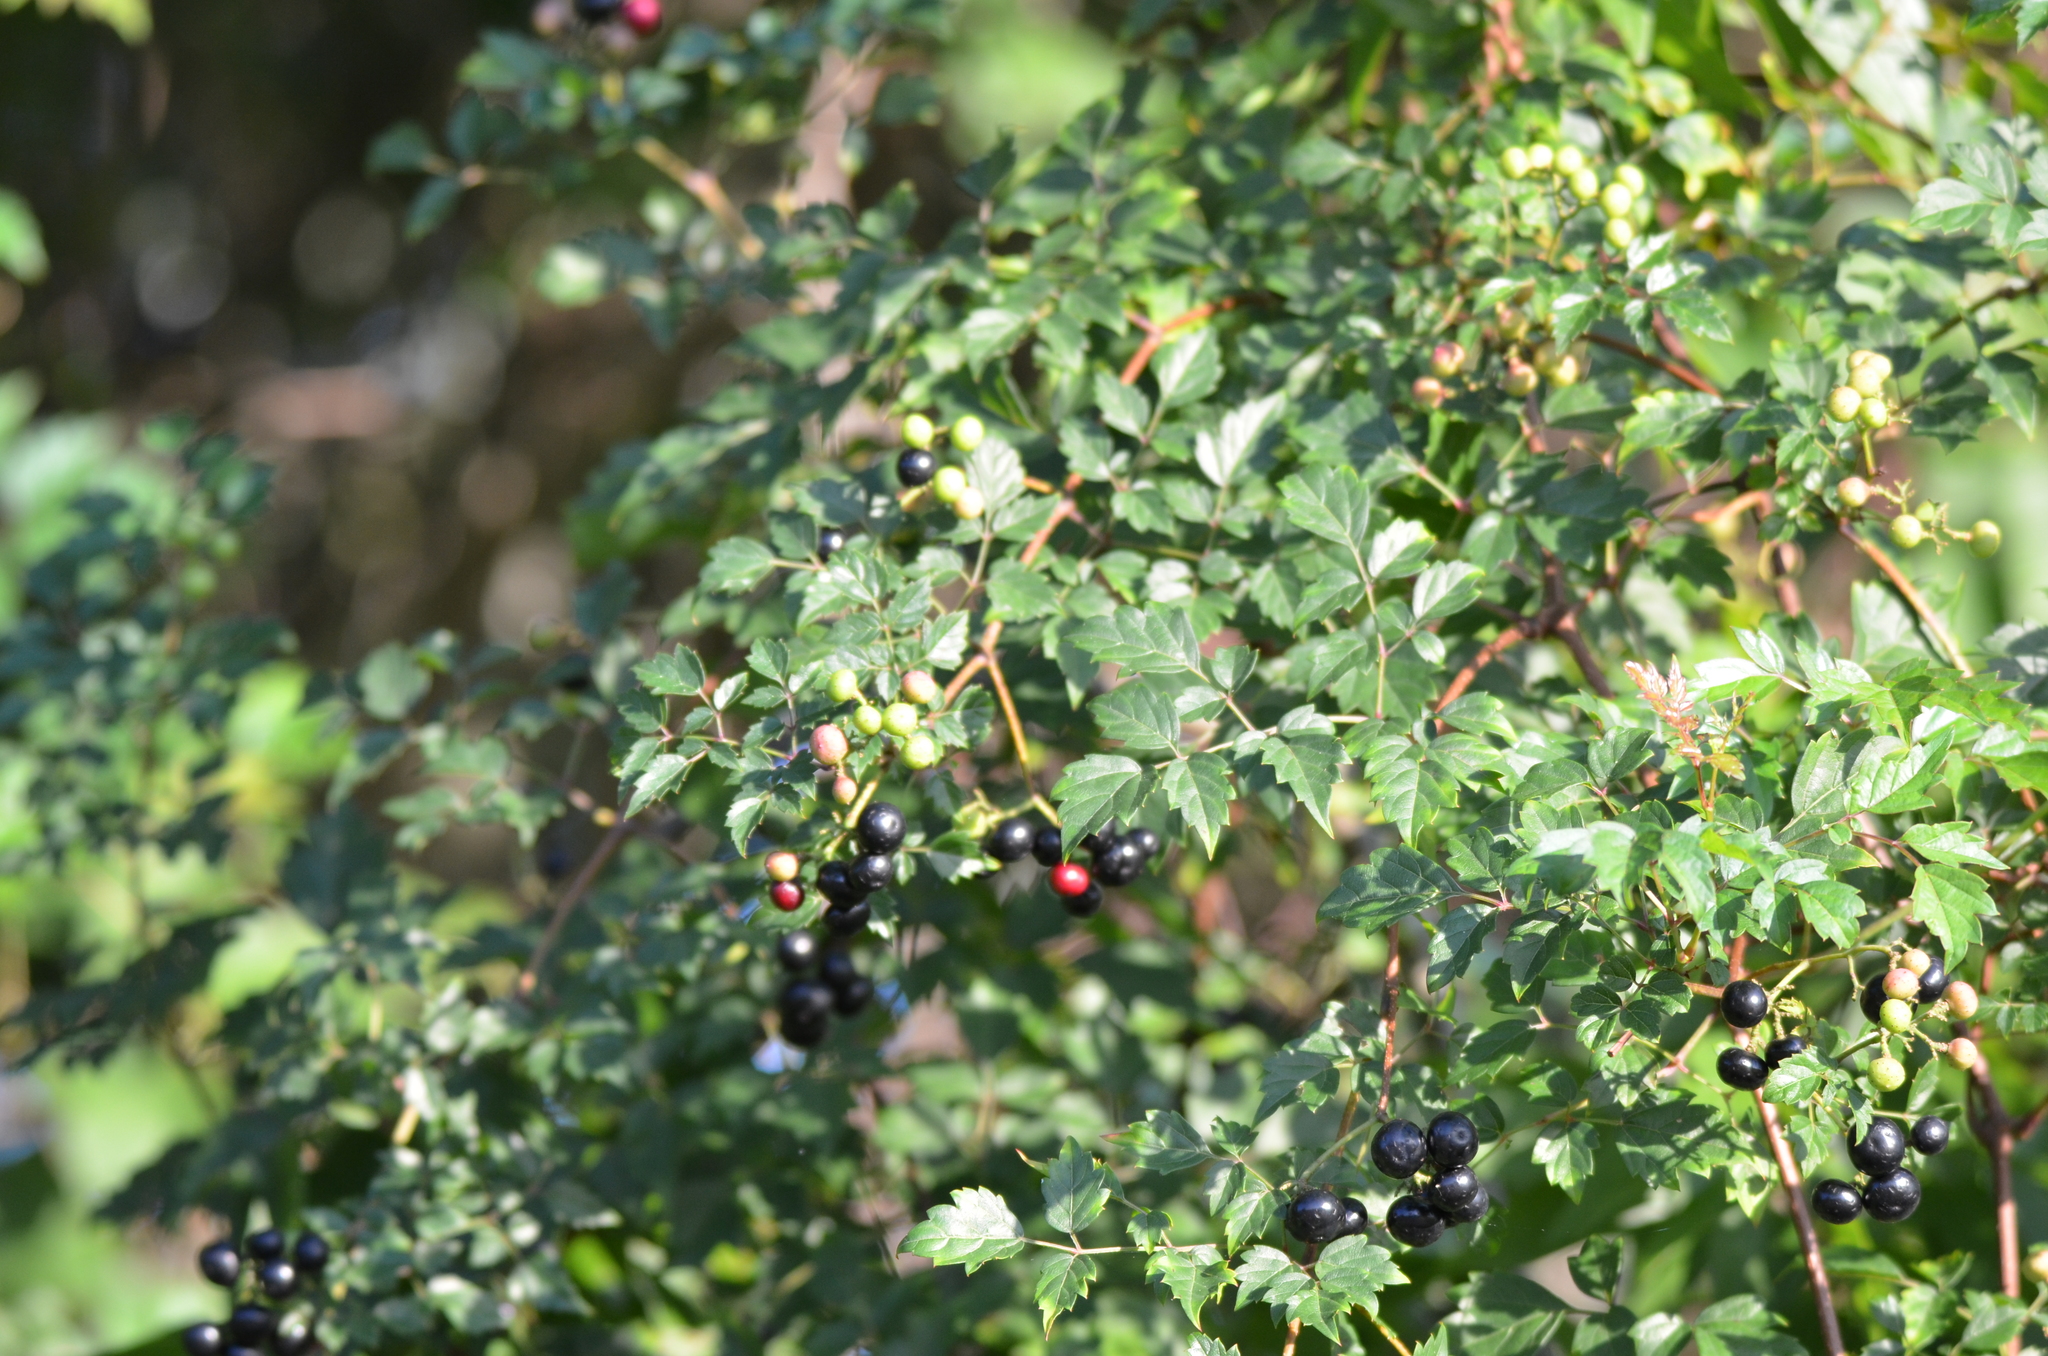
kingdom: Plantae
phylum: Tracheophyta
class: Magnoliopsida
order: Vitales
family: Vitaceae
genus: Nekemias
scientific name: Nekemias arborea
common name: Peppervine
